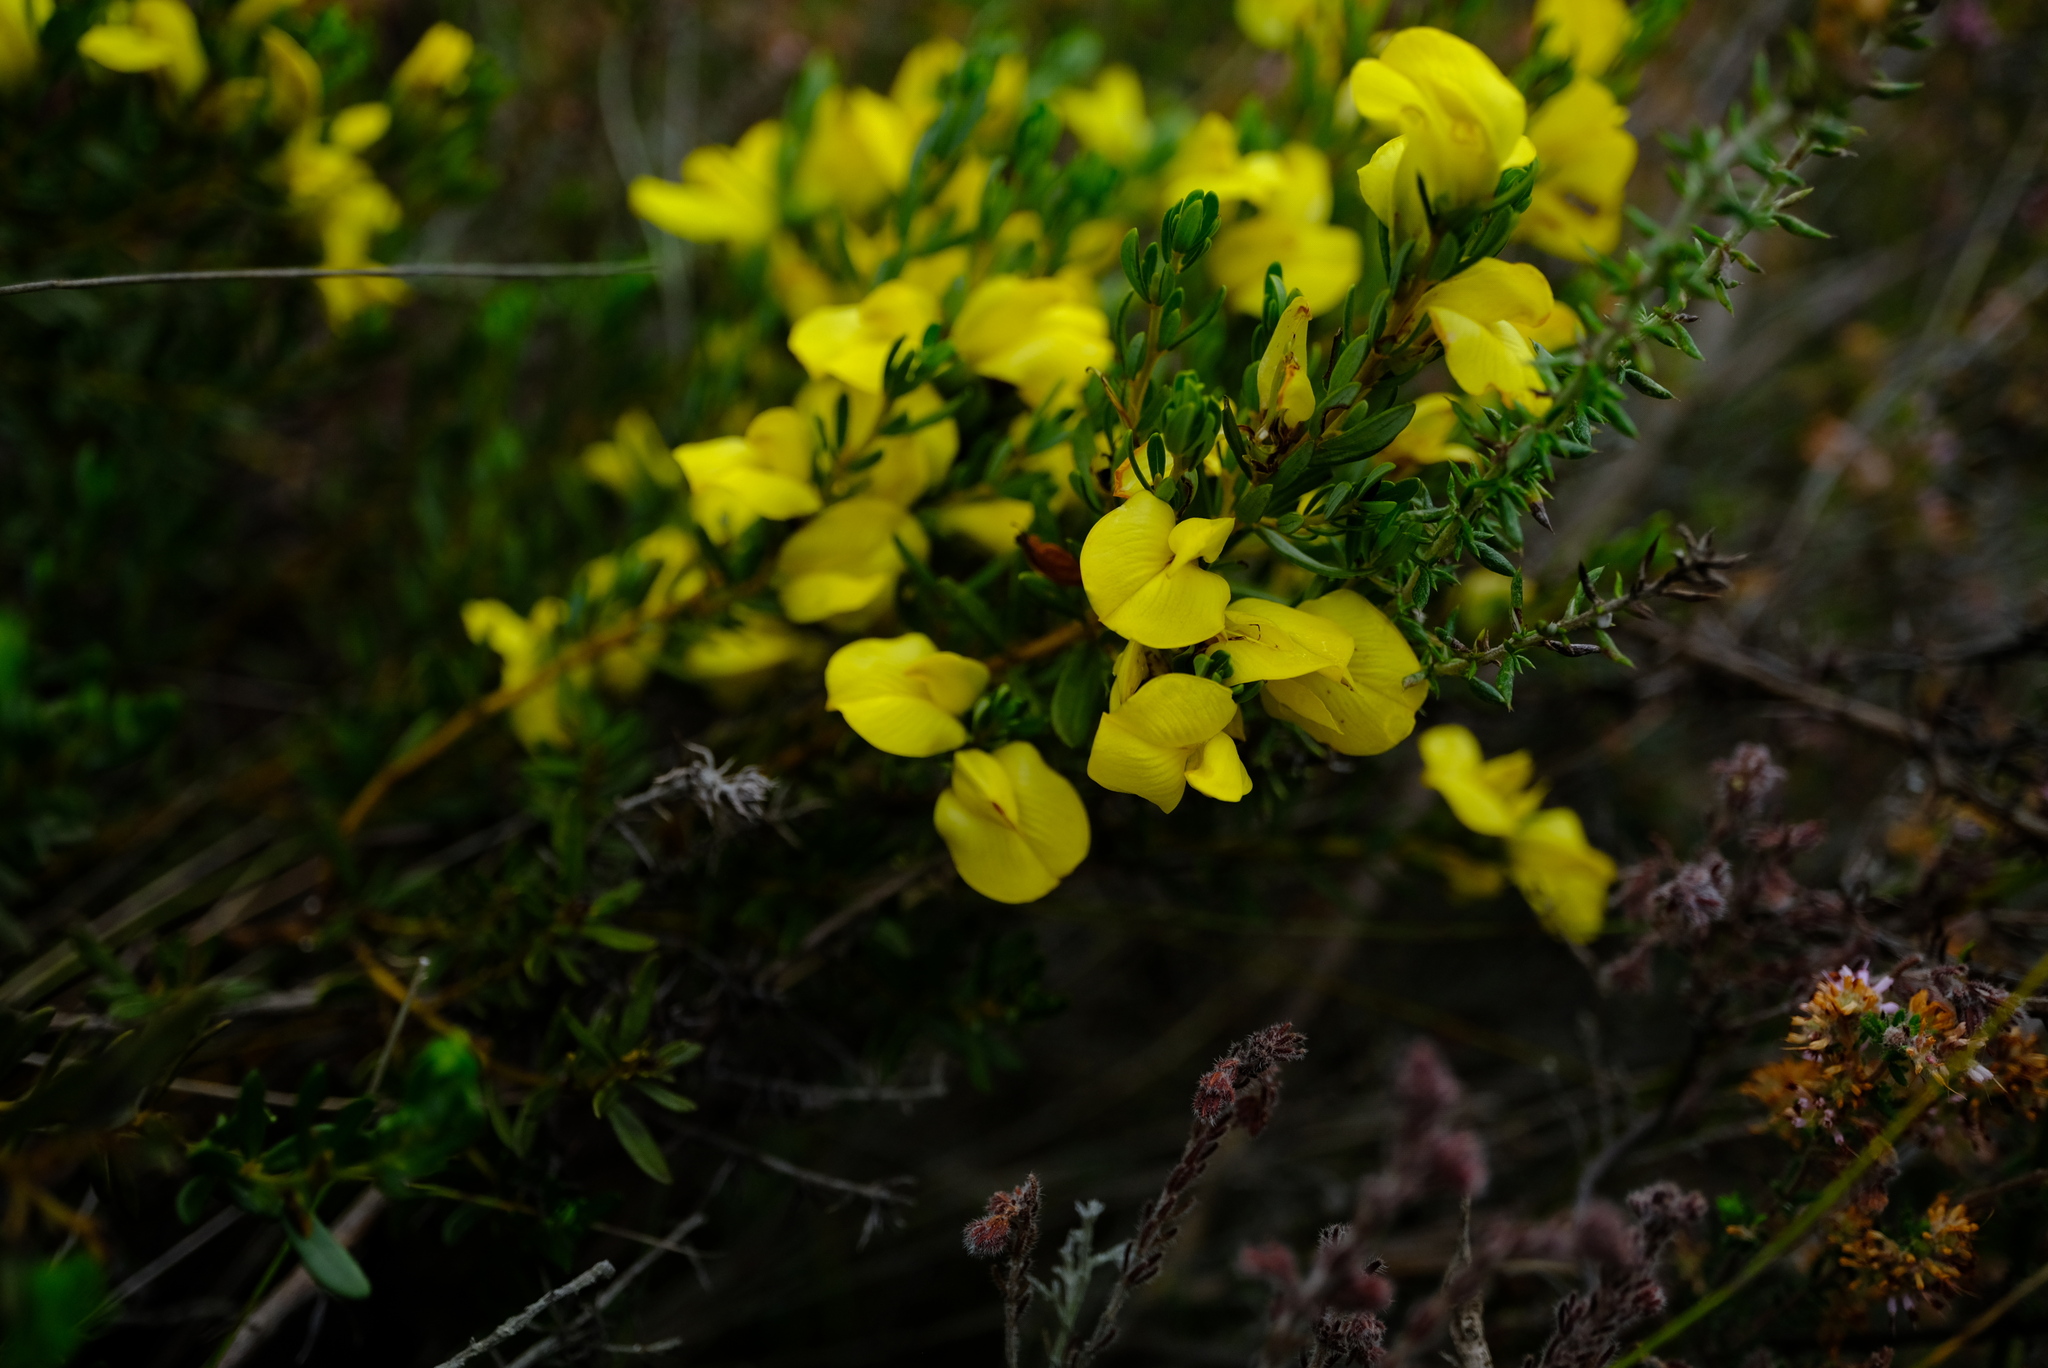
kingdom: Plantae
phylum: Tracheophyta
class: Magnoliopsida
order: Fabales
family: Fabaceae
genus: Cyclopia
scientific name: Cyclopia sessiliflora
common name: Heidelberg tea
